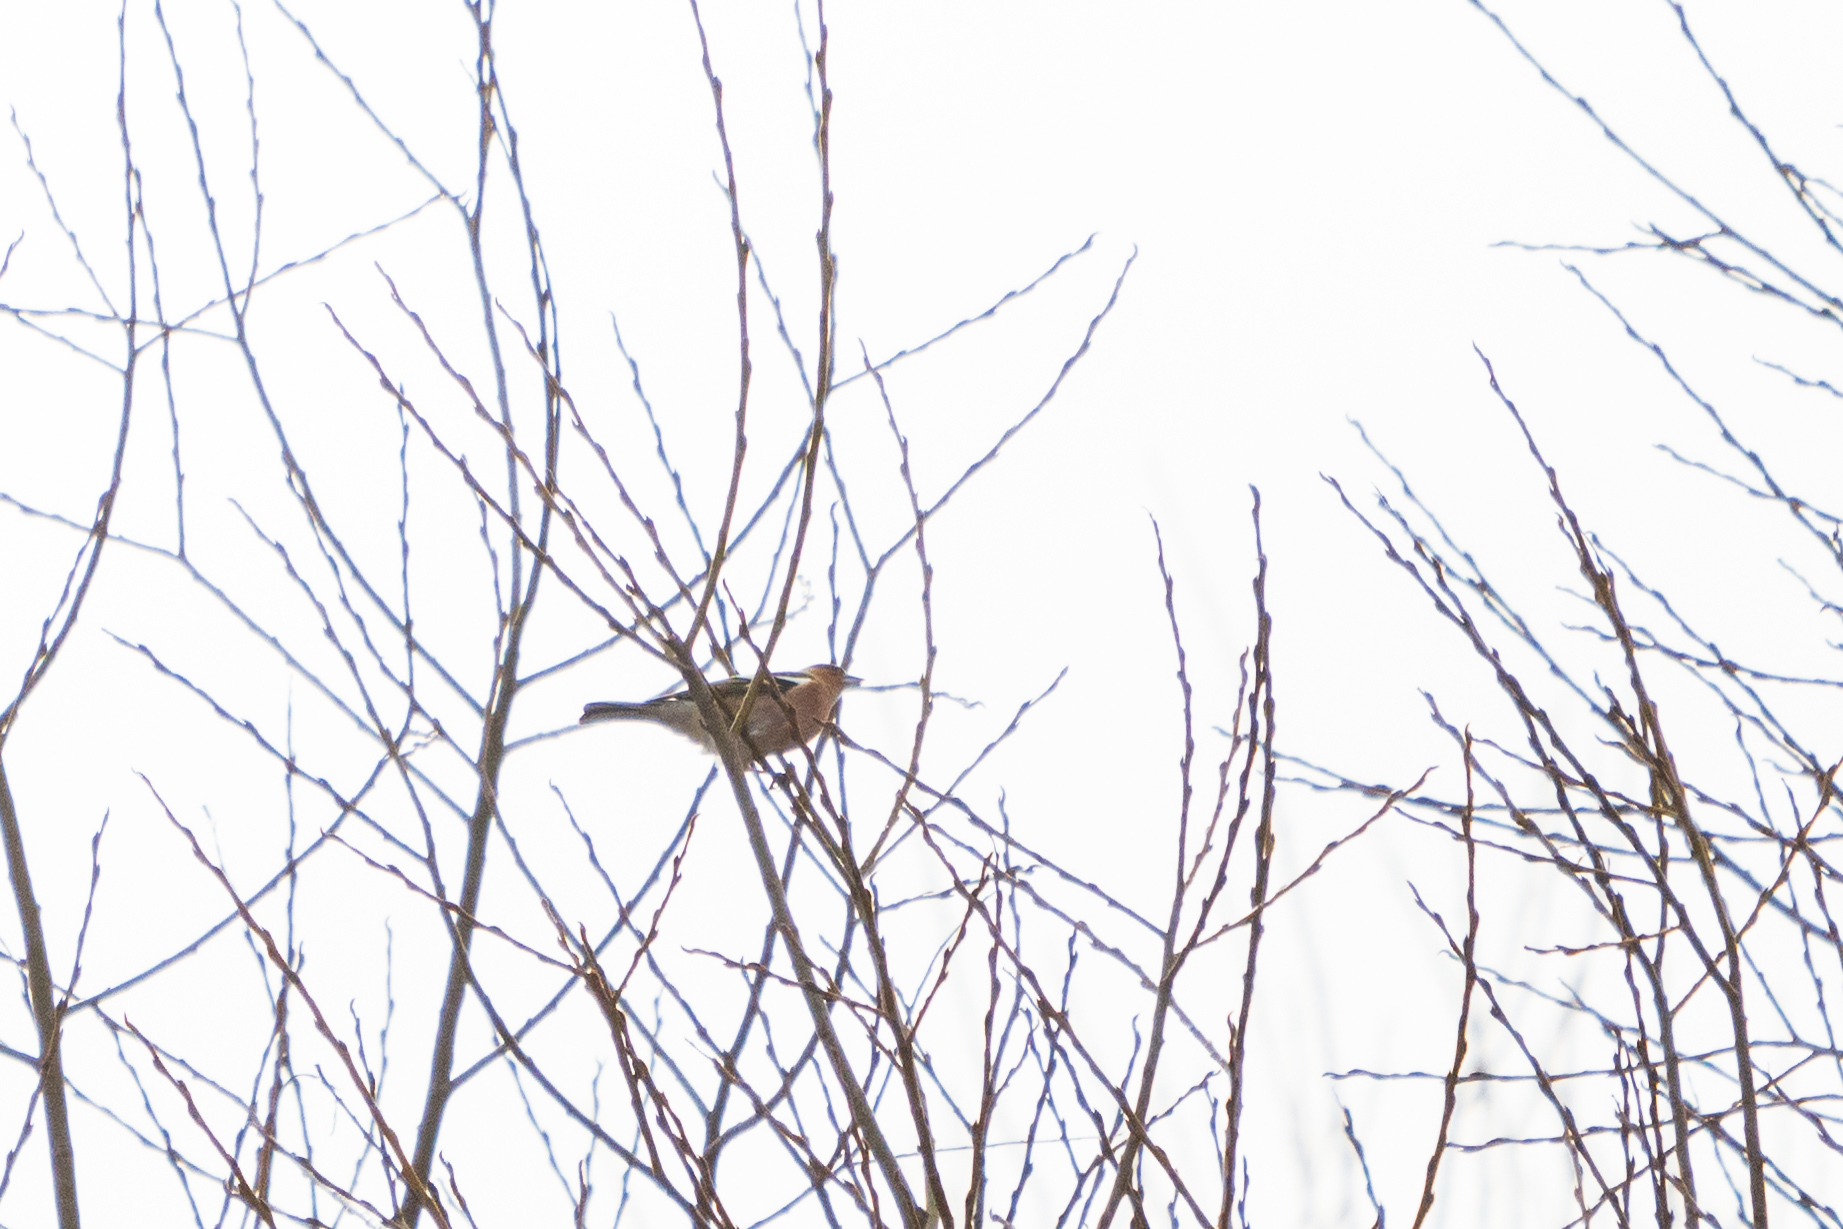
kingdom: Animalia
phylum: Chordata
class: Aves
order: Passeriformes
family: Fringillidae
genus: Fringilla
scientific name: Fringilla coelebs
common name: Common chaffinch
